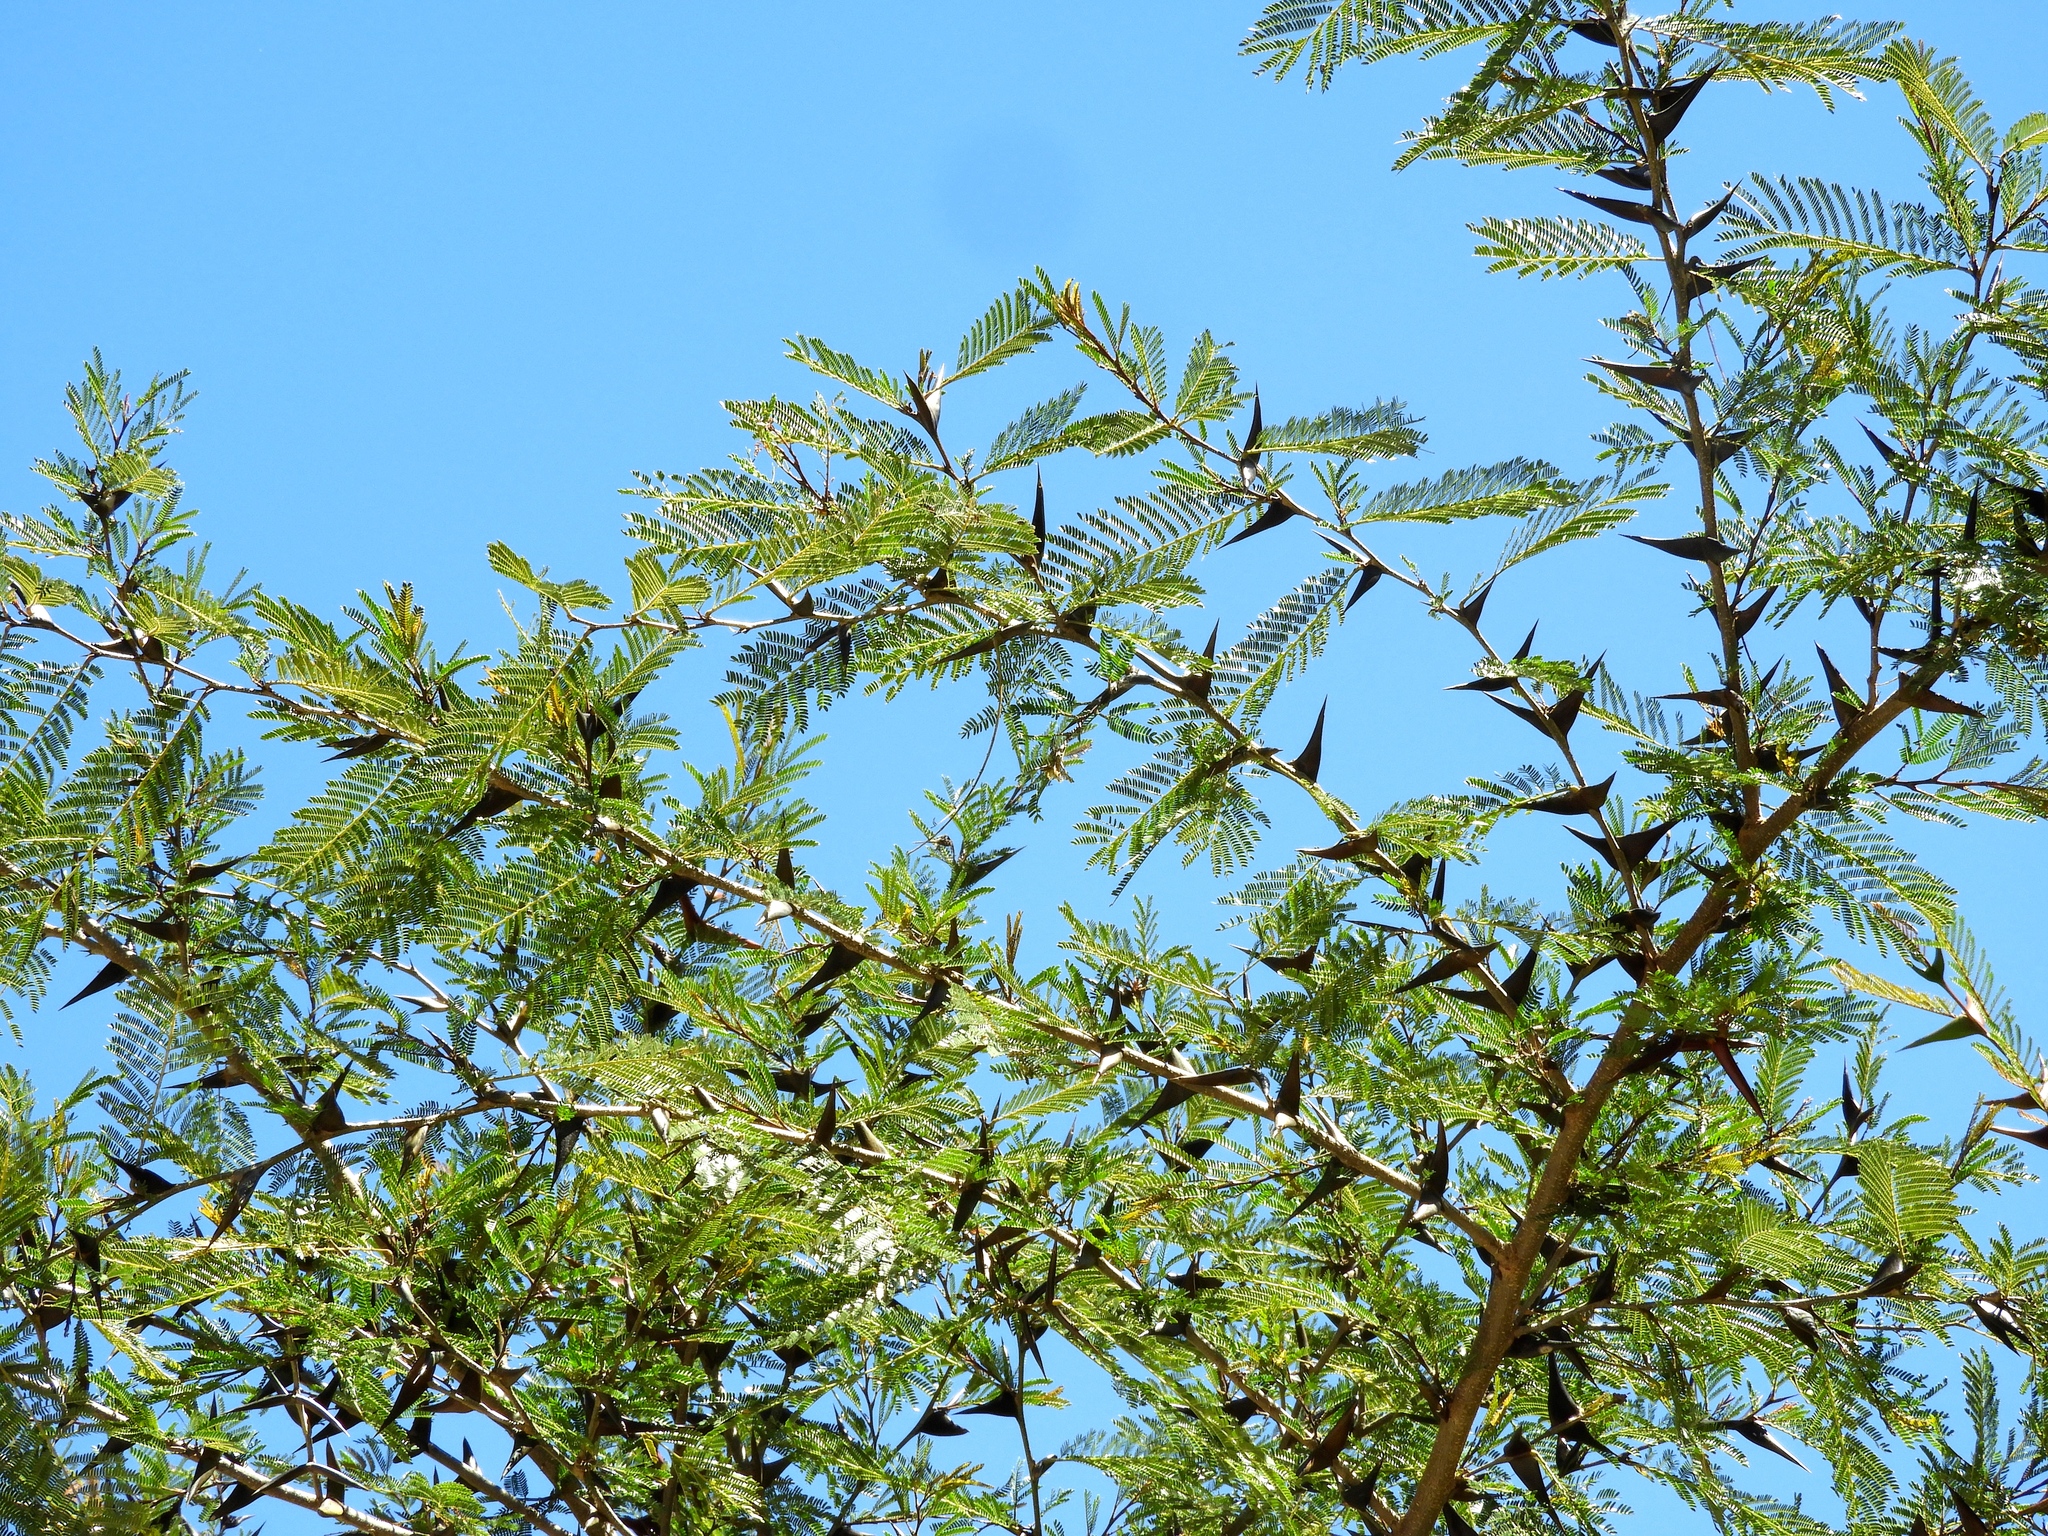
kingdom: Plantae
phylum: Tracheophyta
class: Magnoliopsida
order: Fabales
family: Fabaceae
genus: Vachellia
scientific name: Vachellia hindsii
